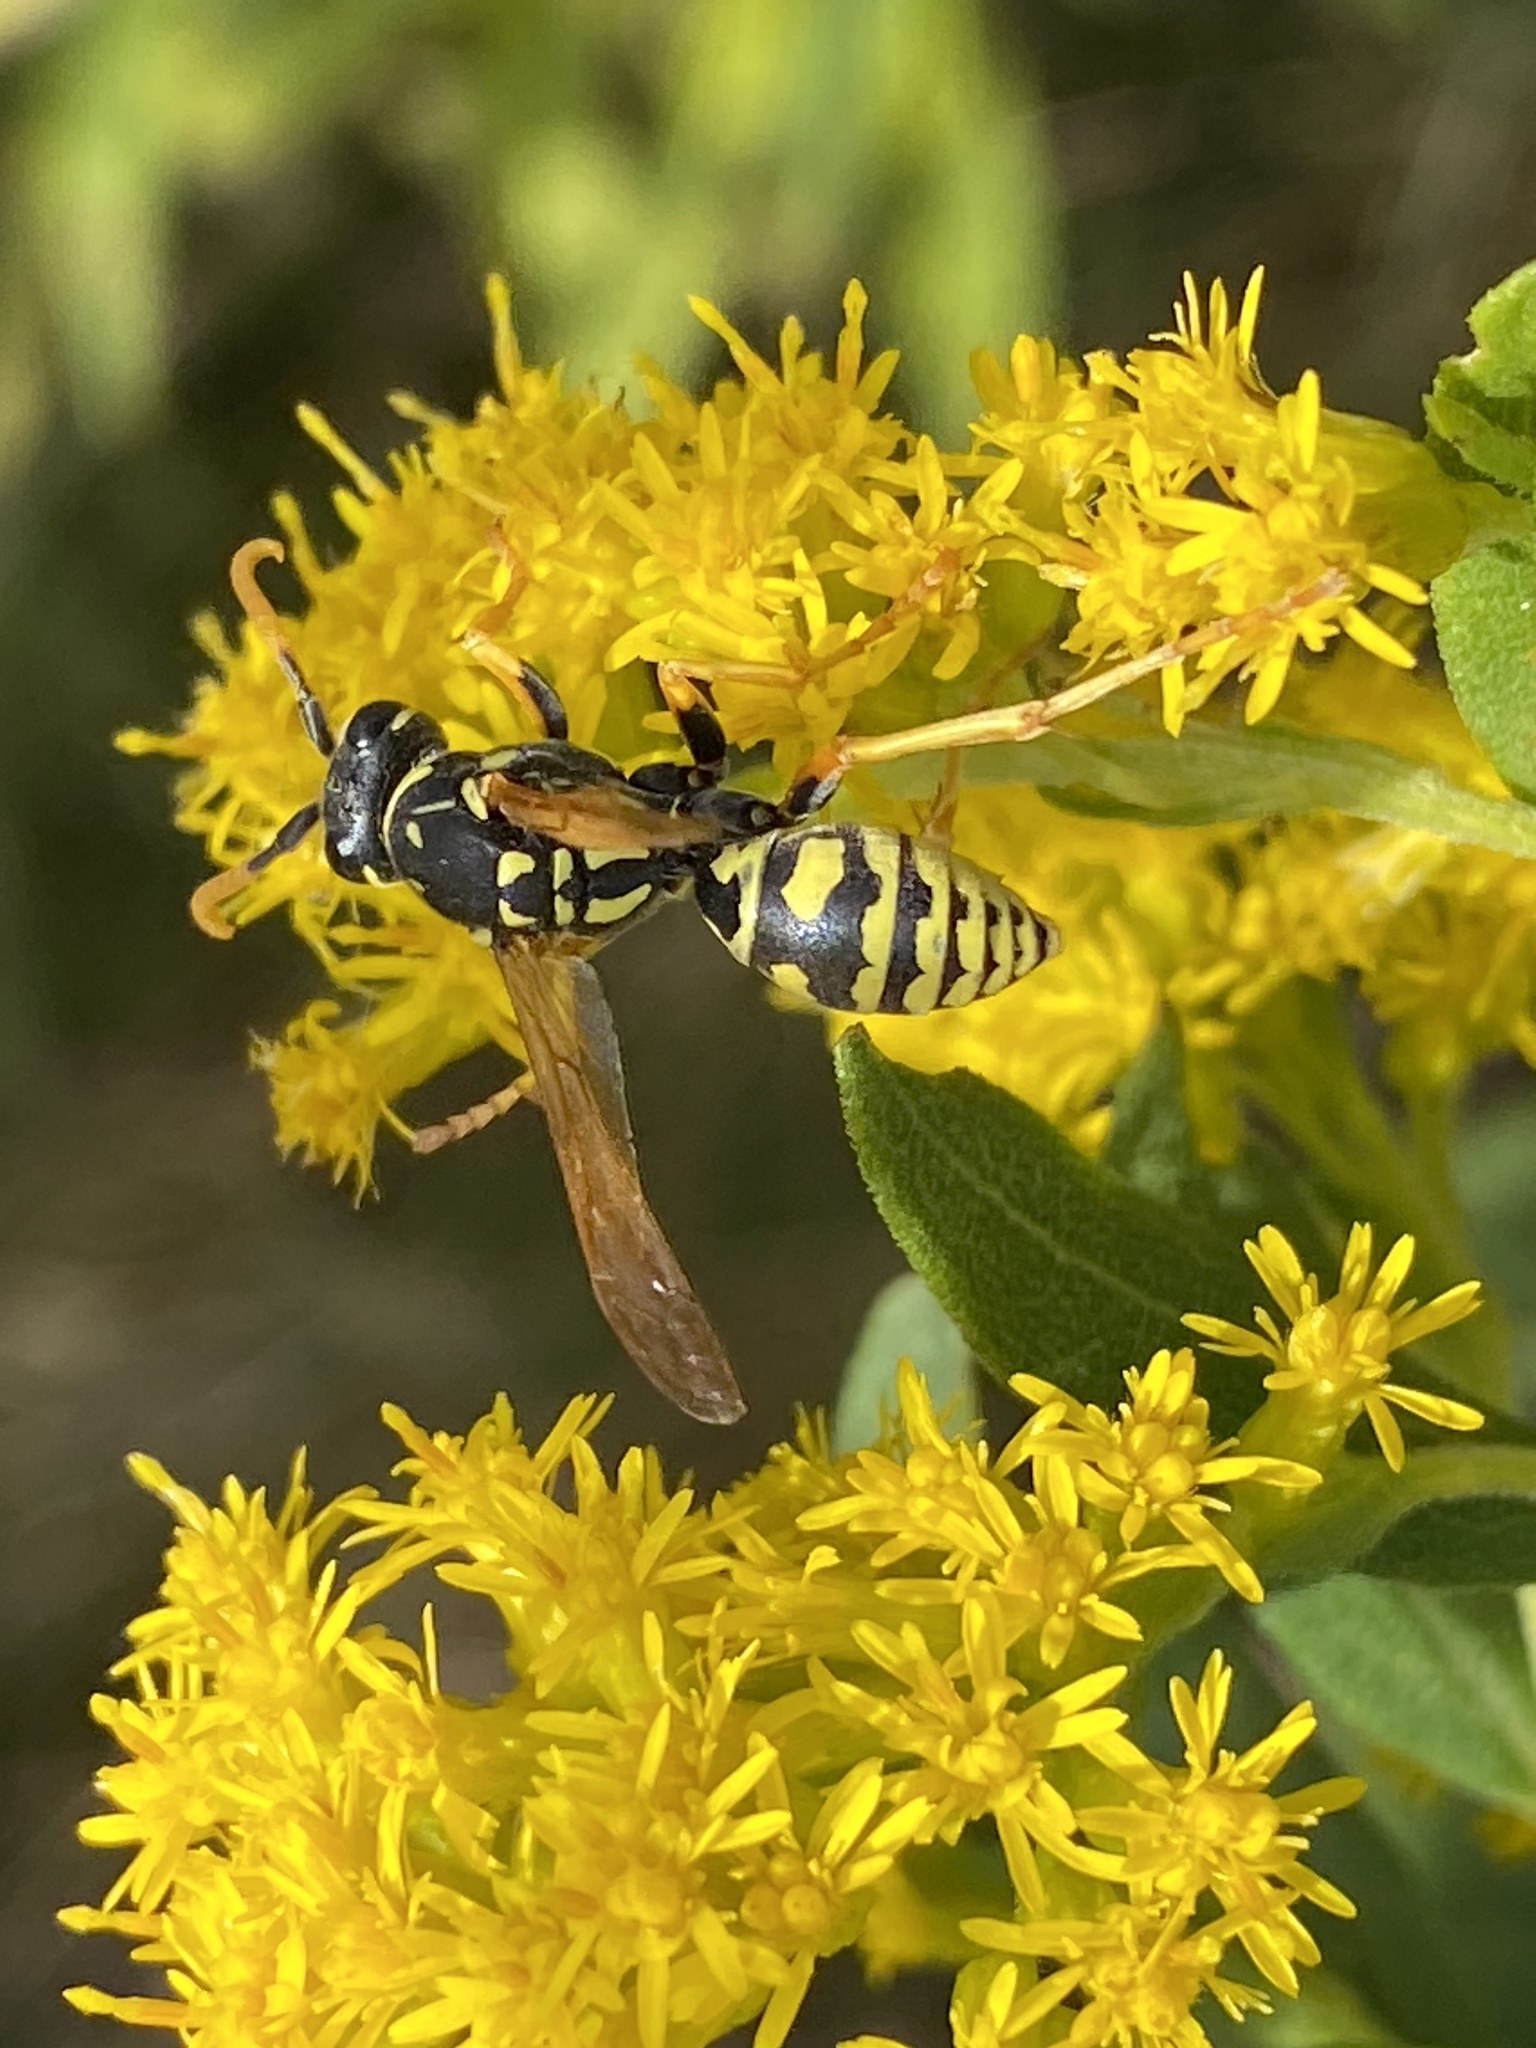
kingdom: Animalia
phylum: Arthropoda
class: Insecta
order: Hymenoptera
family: Eumenidae
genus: Polistes
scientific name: Polistes dominula
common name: Paper wasp
